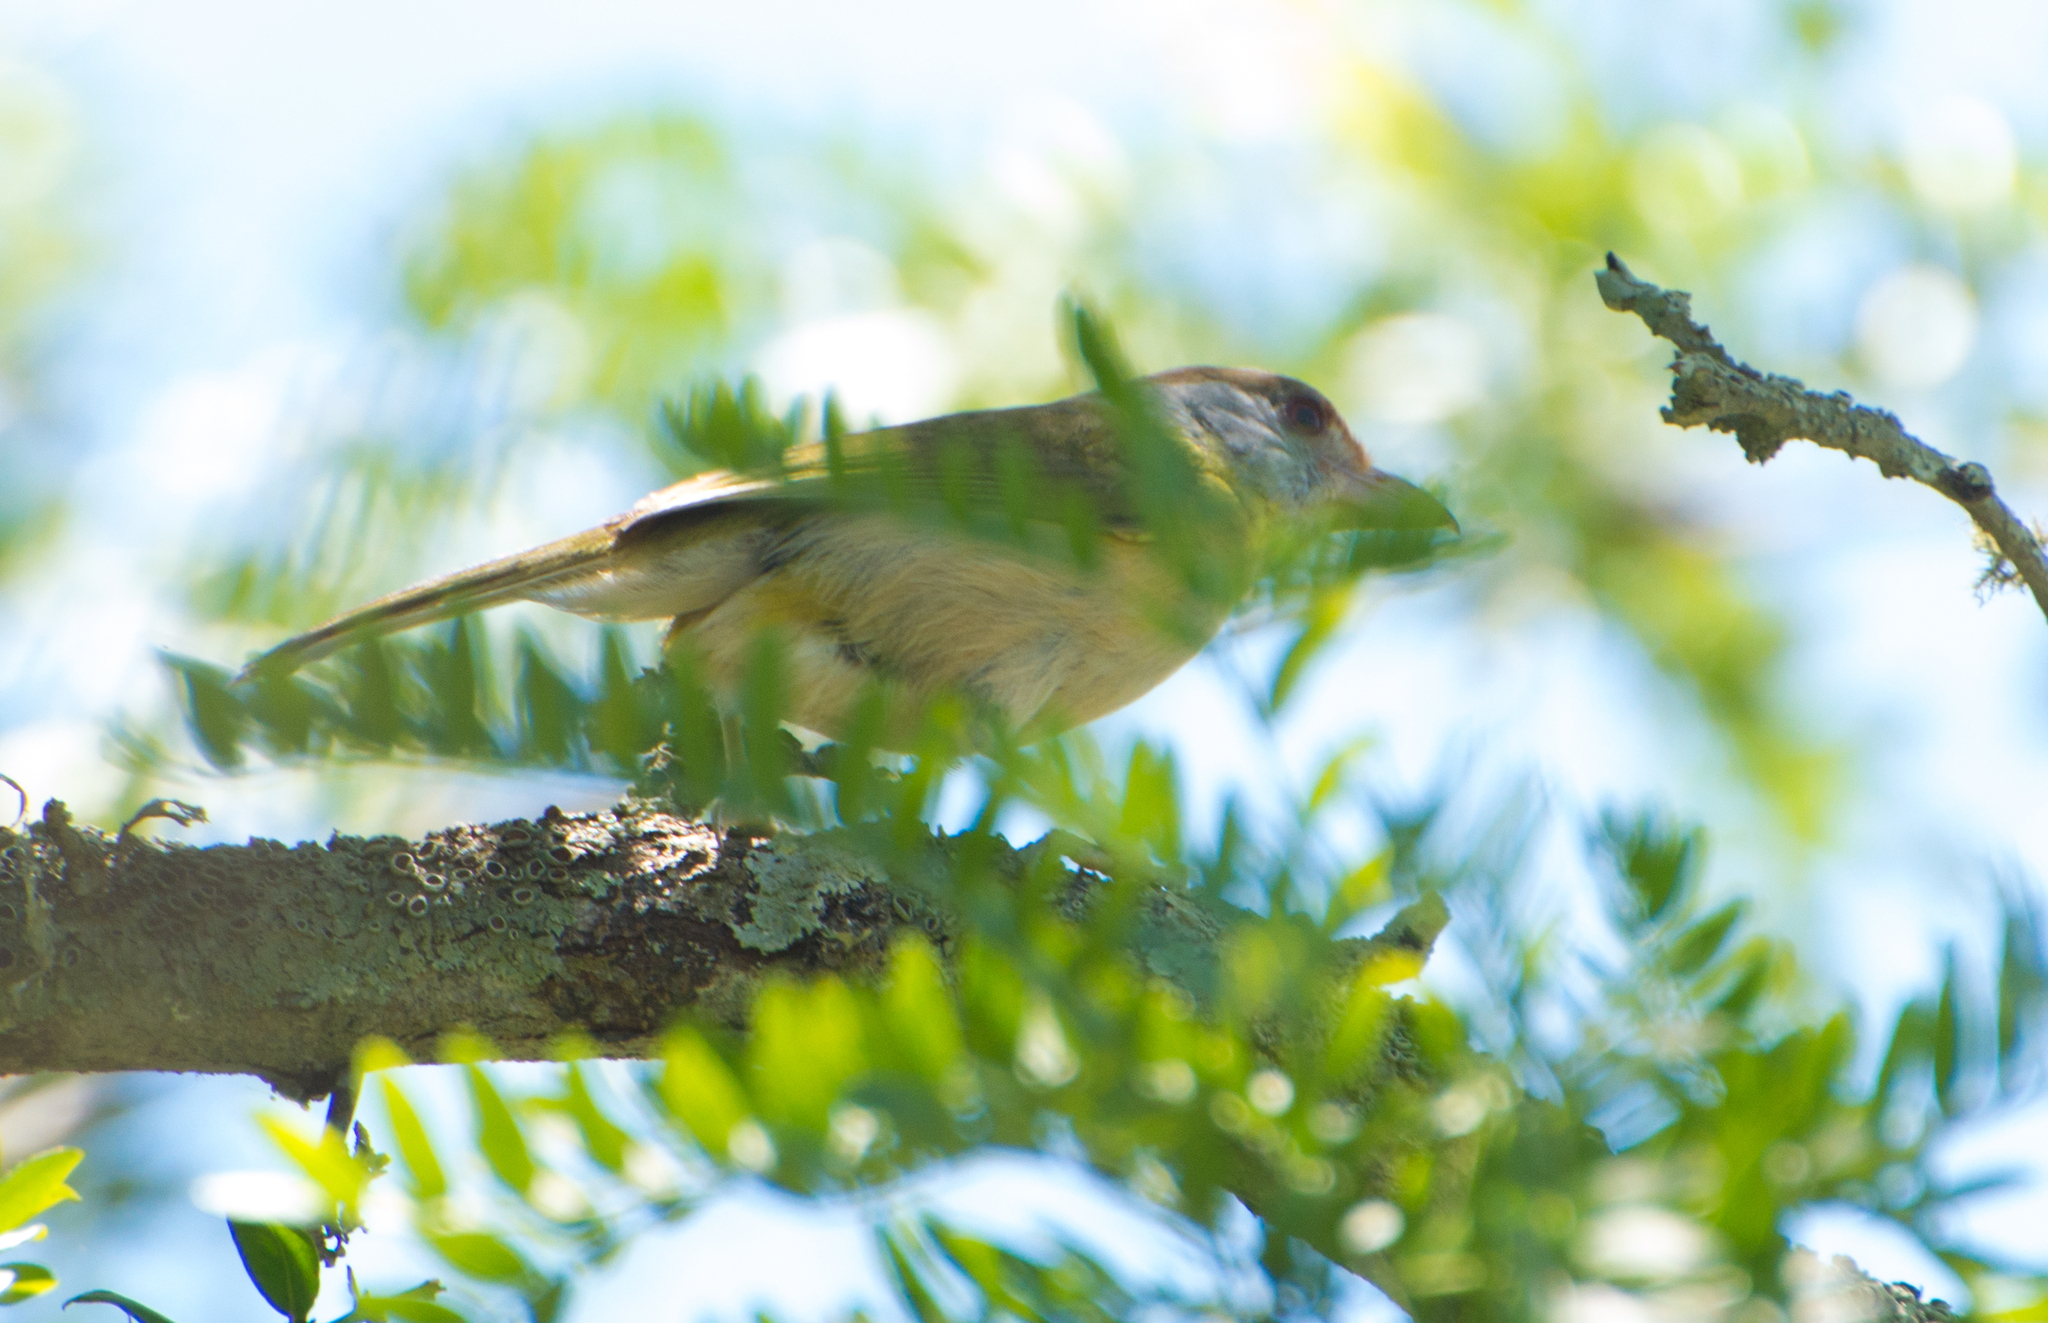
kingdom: Animalia
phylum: Chordata
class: Aves
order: Passeriformes
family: Vireonidae
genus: Cyclarhis
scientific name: Cyclarhis gujanensis
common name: Rufous-browed peppershrike
